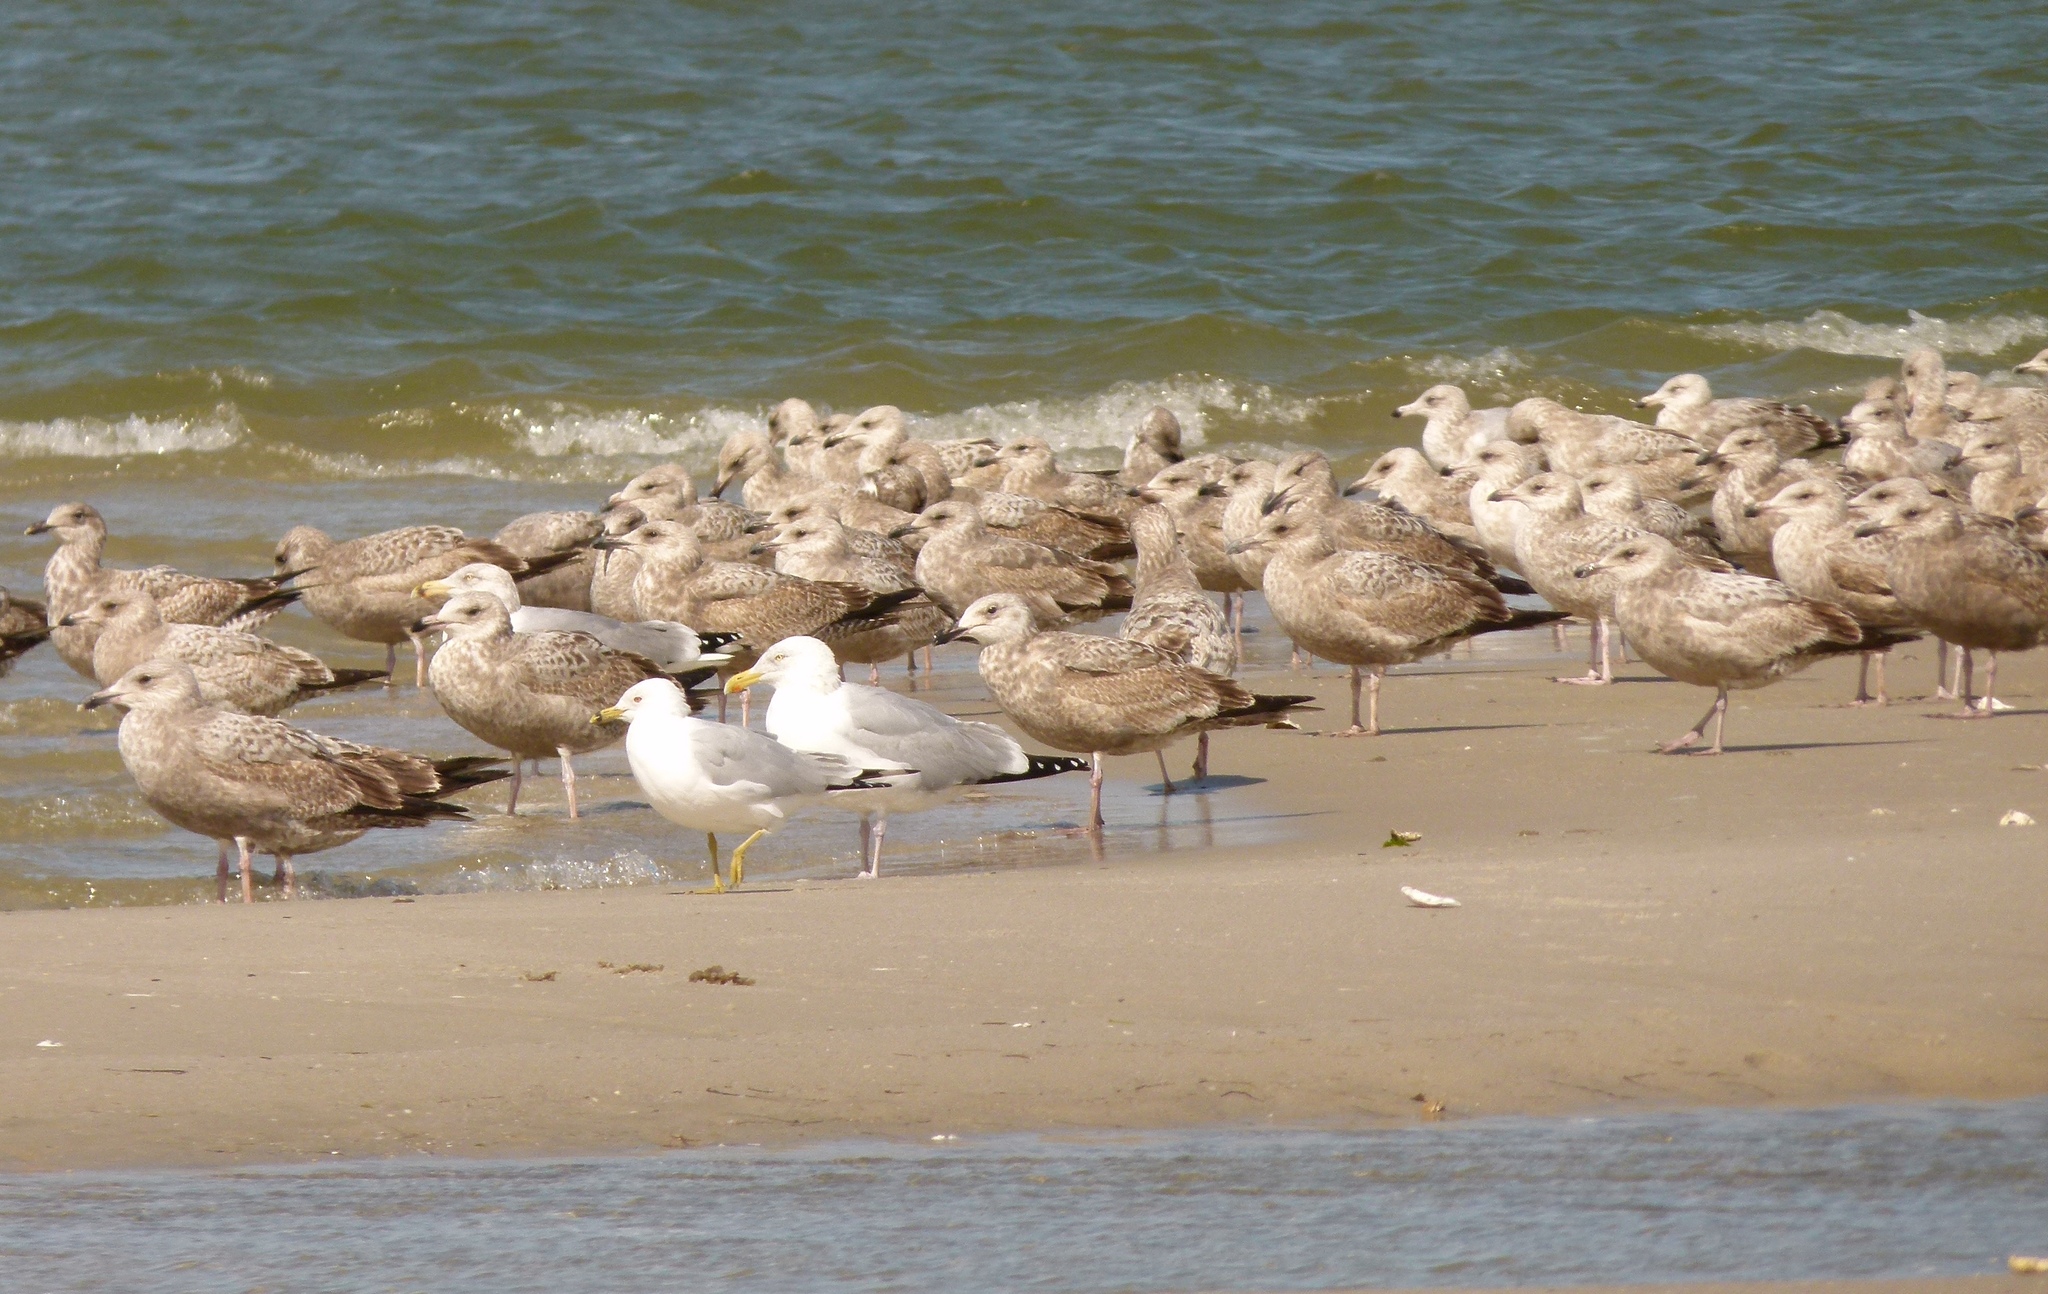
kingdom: Animalia
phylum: Chordata
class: Aves
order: Charadriiformes
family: Laridae
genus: Larus
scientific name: Larus argentatus
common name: Herring gull
